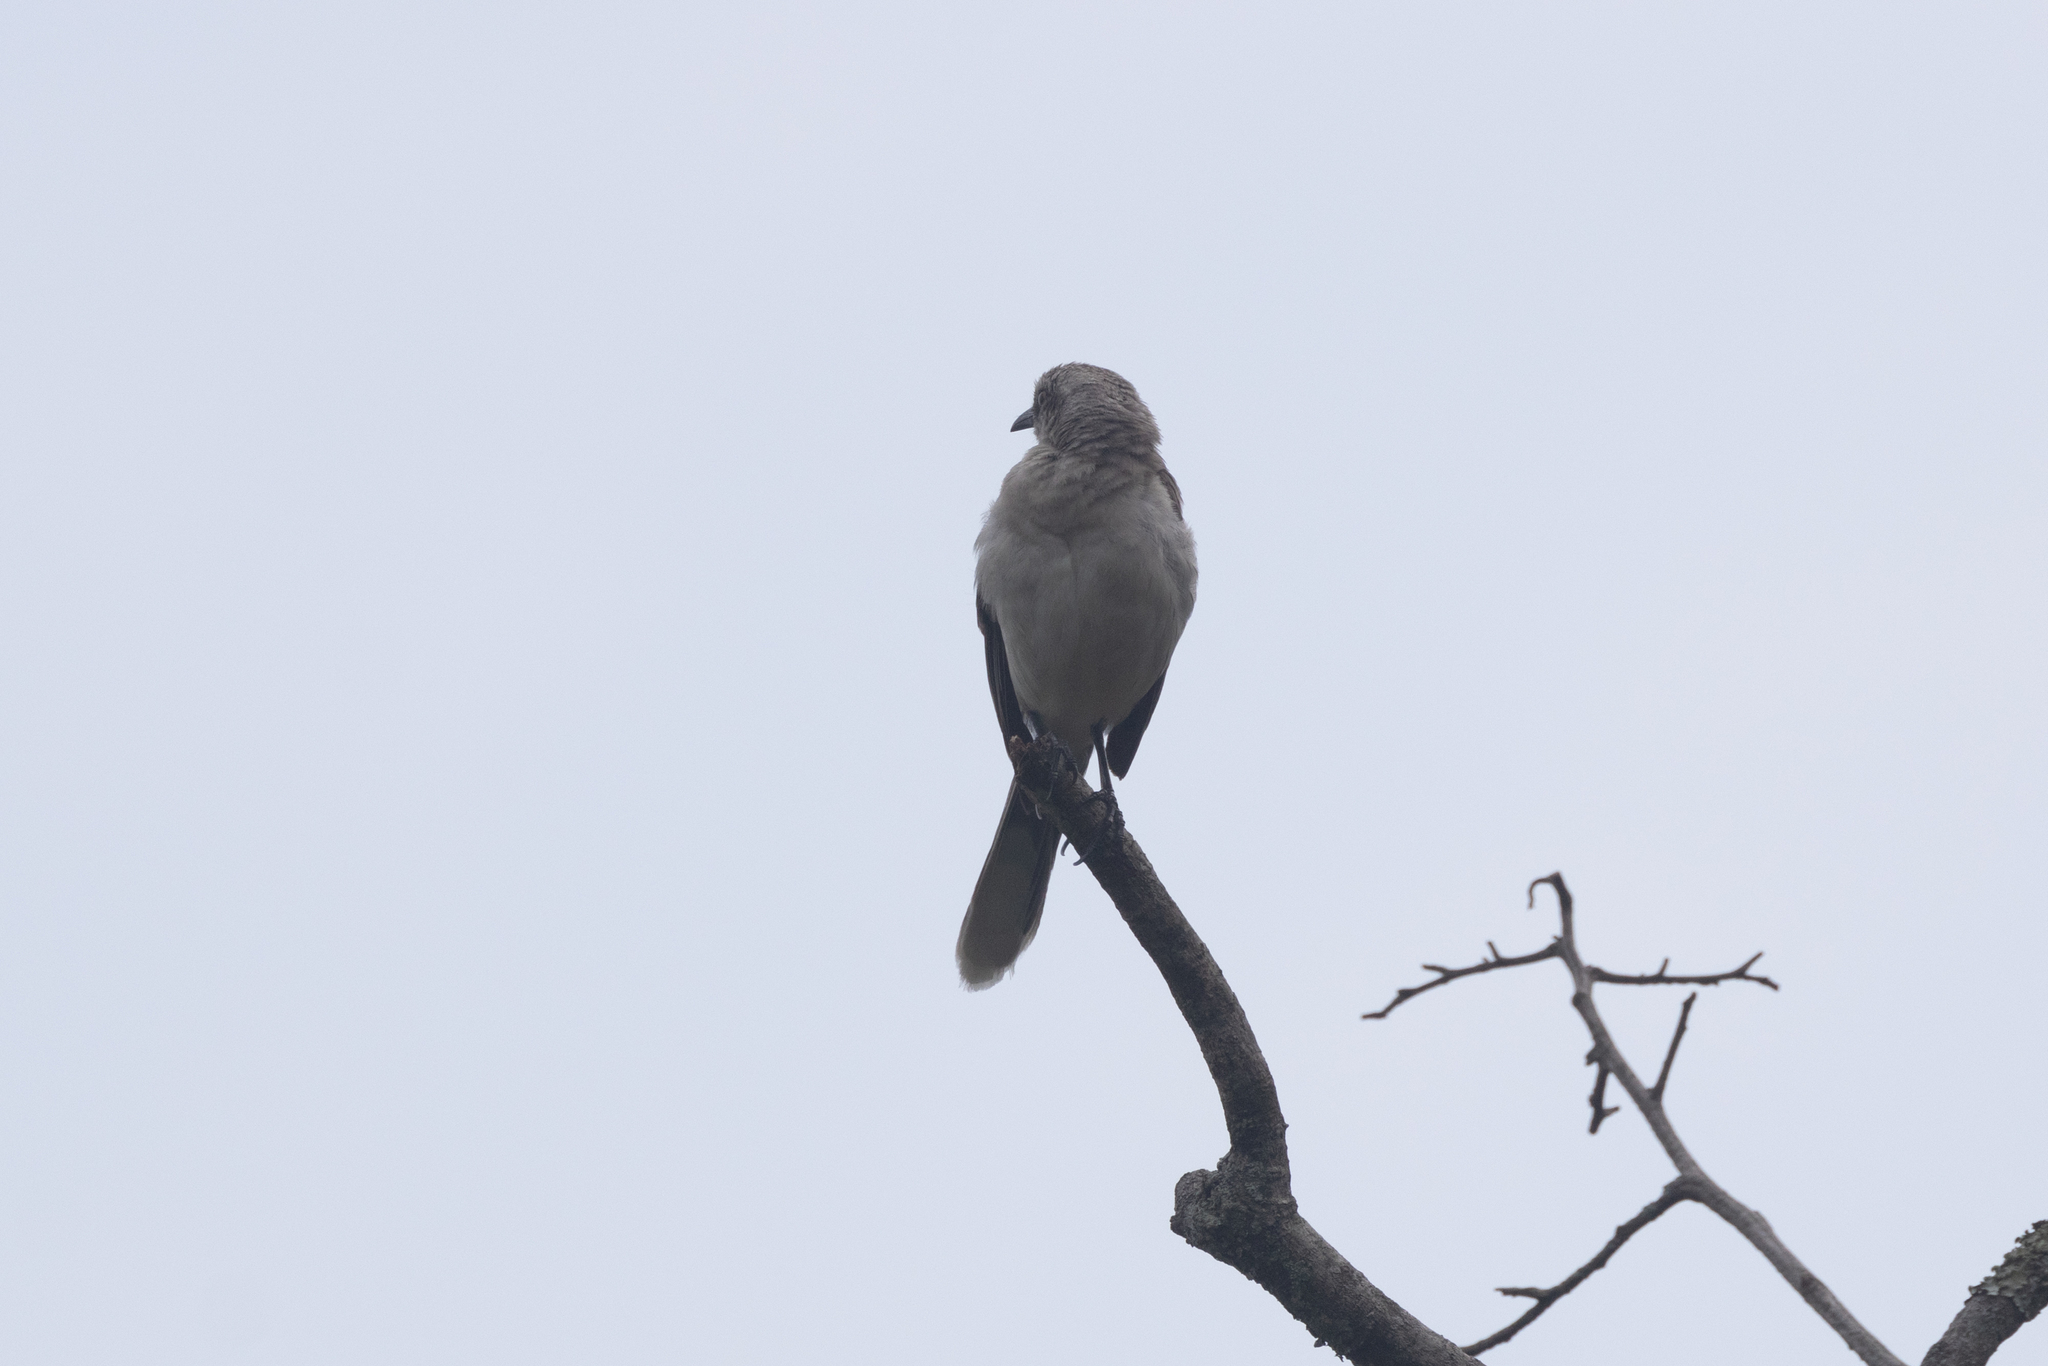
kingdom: Animalia
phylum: Chordata
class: Aves
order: Passeriformes
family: Mimidae
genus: Mimus
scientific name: Mimus gilvus
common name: Tropical mockingbird
